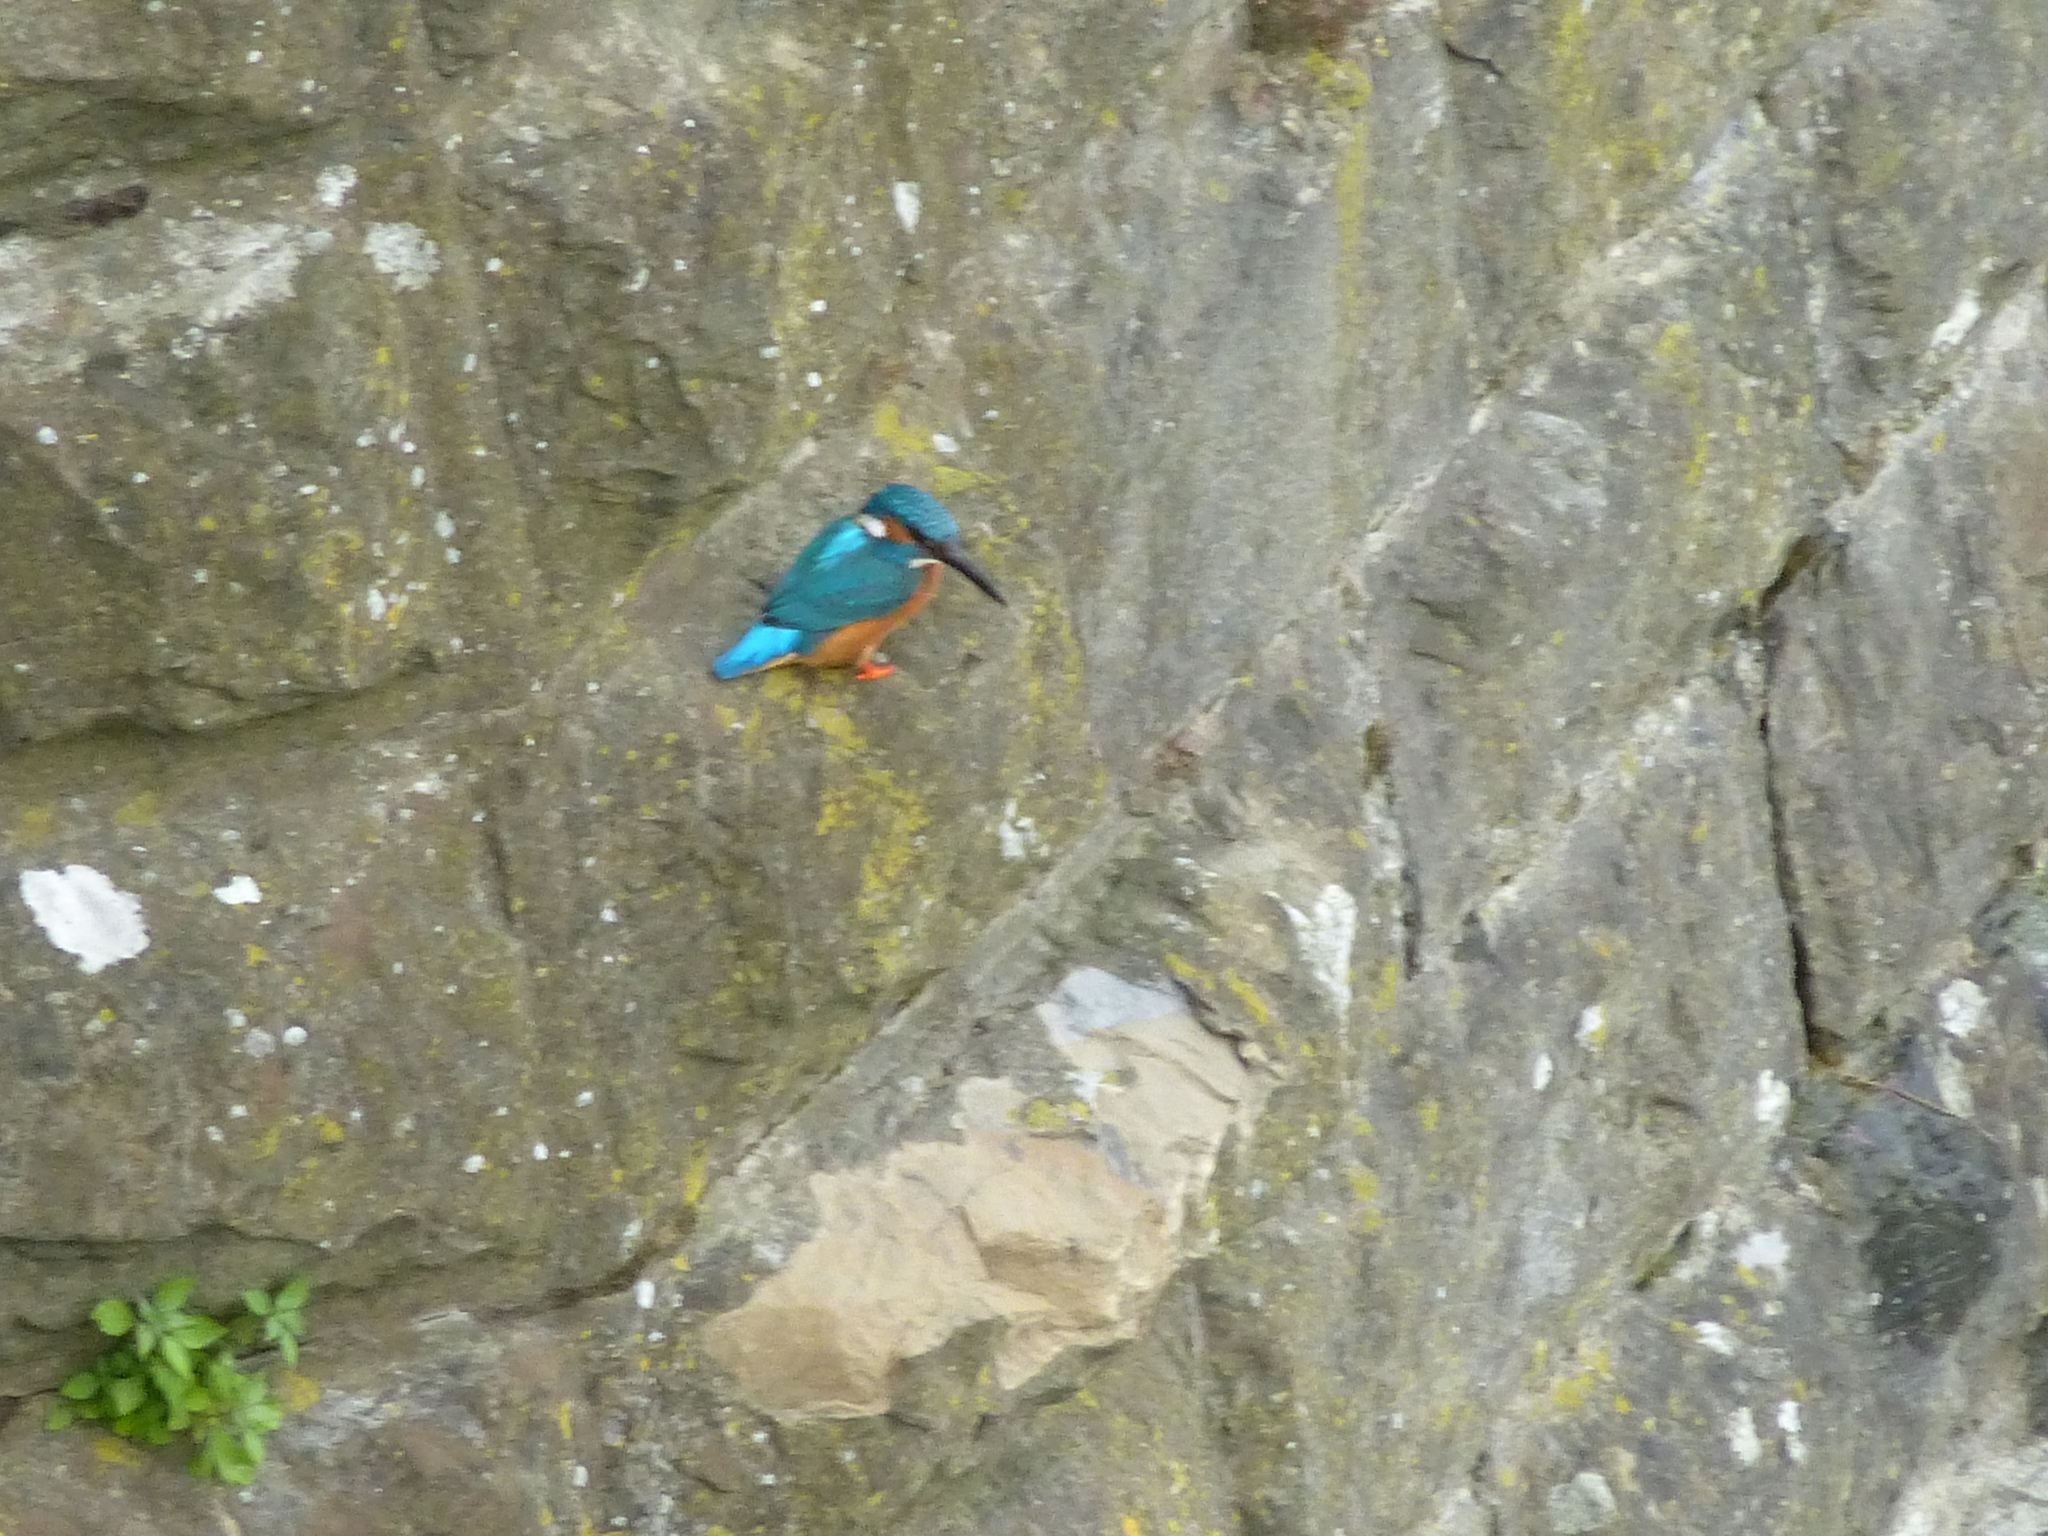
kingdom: Animalia
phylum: Chordata
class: Aves
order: Coraciiformes
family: Alcedinidae
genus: Alcedo
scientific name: Alcedo atthis
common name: Common kingfisher
